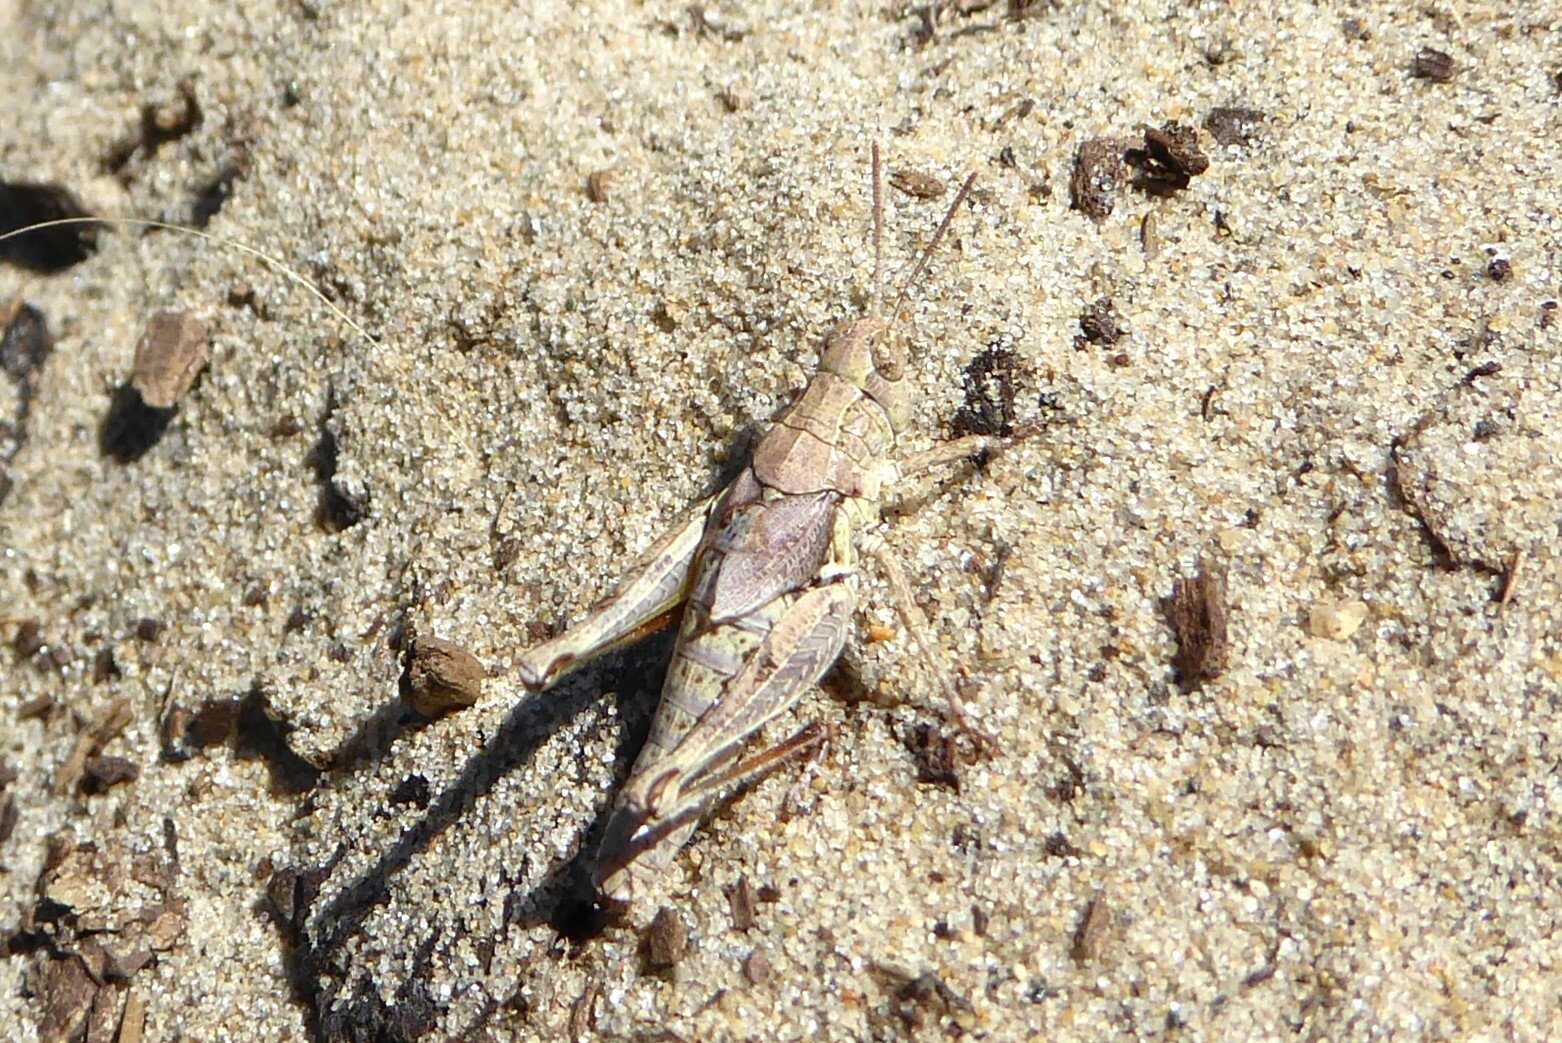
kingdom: Animalia
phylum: Arthropoda
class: Insecta
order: Orthoptera
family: Acrididae
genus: Phaulacridium
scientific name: Phaulacridium marginale
